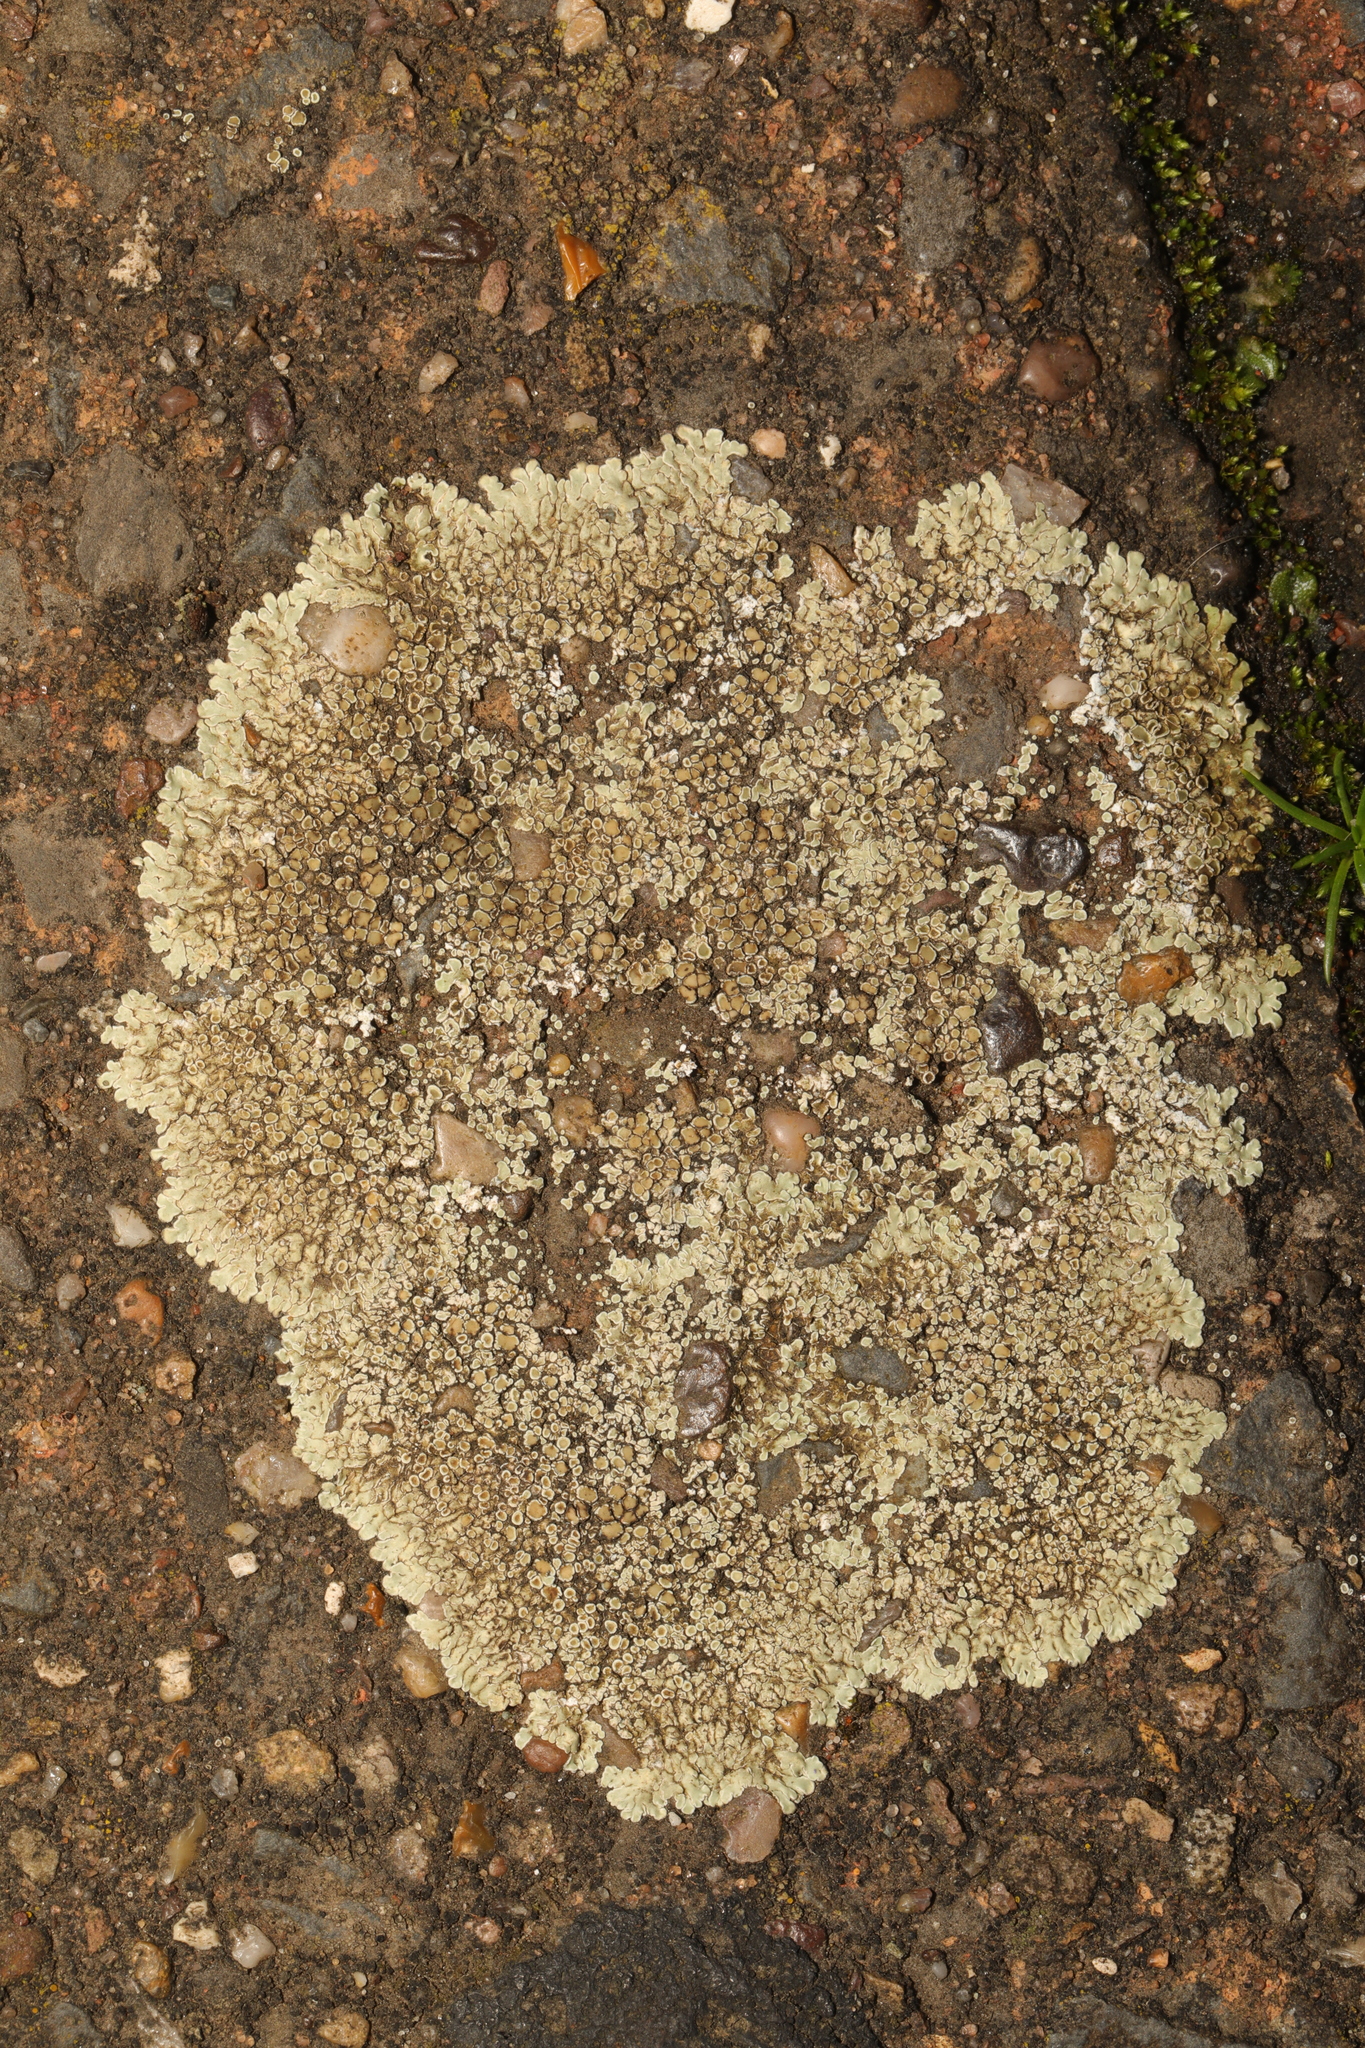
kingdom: Fungi
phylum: Ascomycota
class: Lecanoromycetes
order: Lecanorales
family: Lecanoraceae
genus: Protoparmeliopsis
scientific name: Protoparmeliopsis muralis
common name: Stonewall rim lichen
